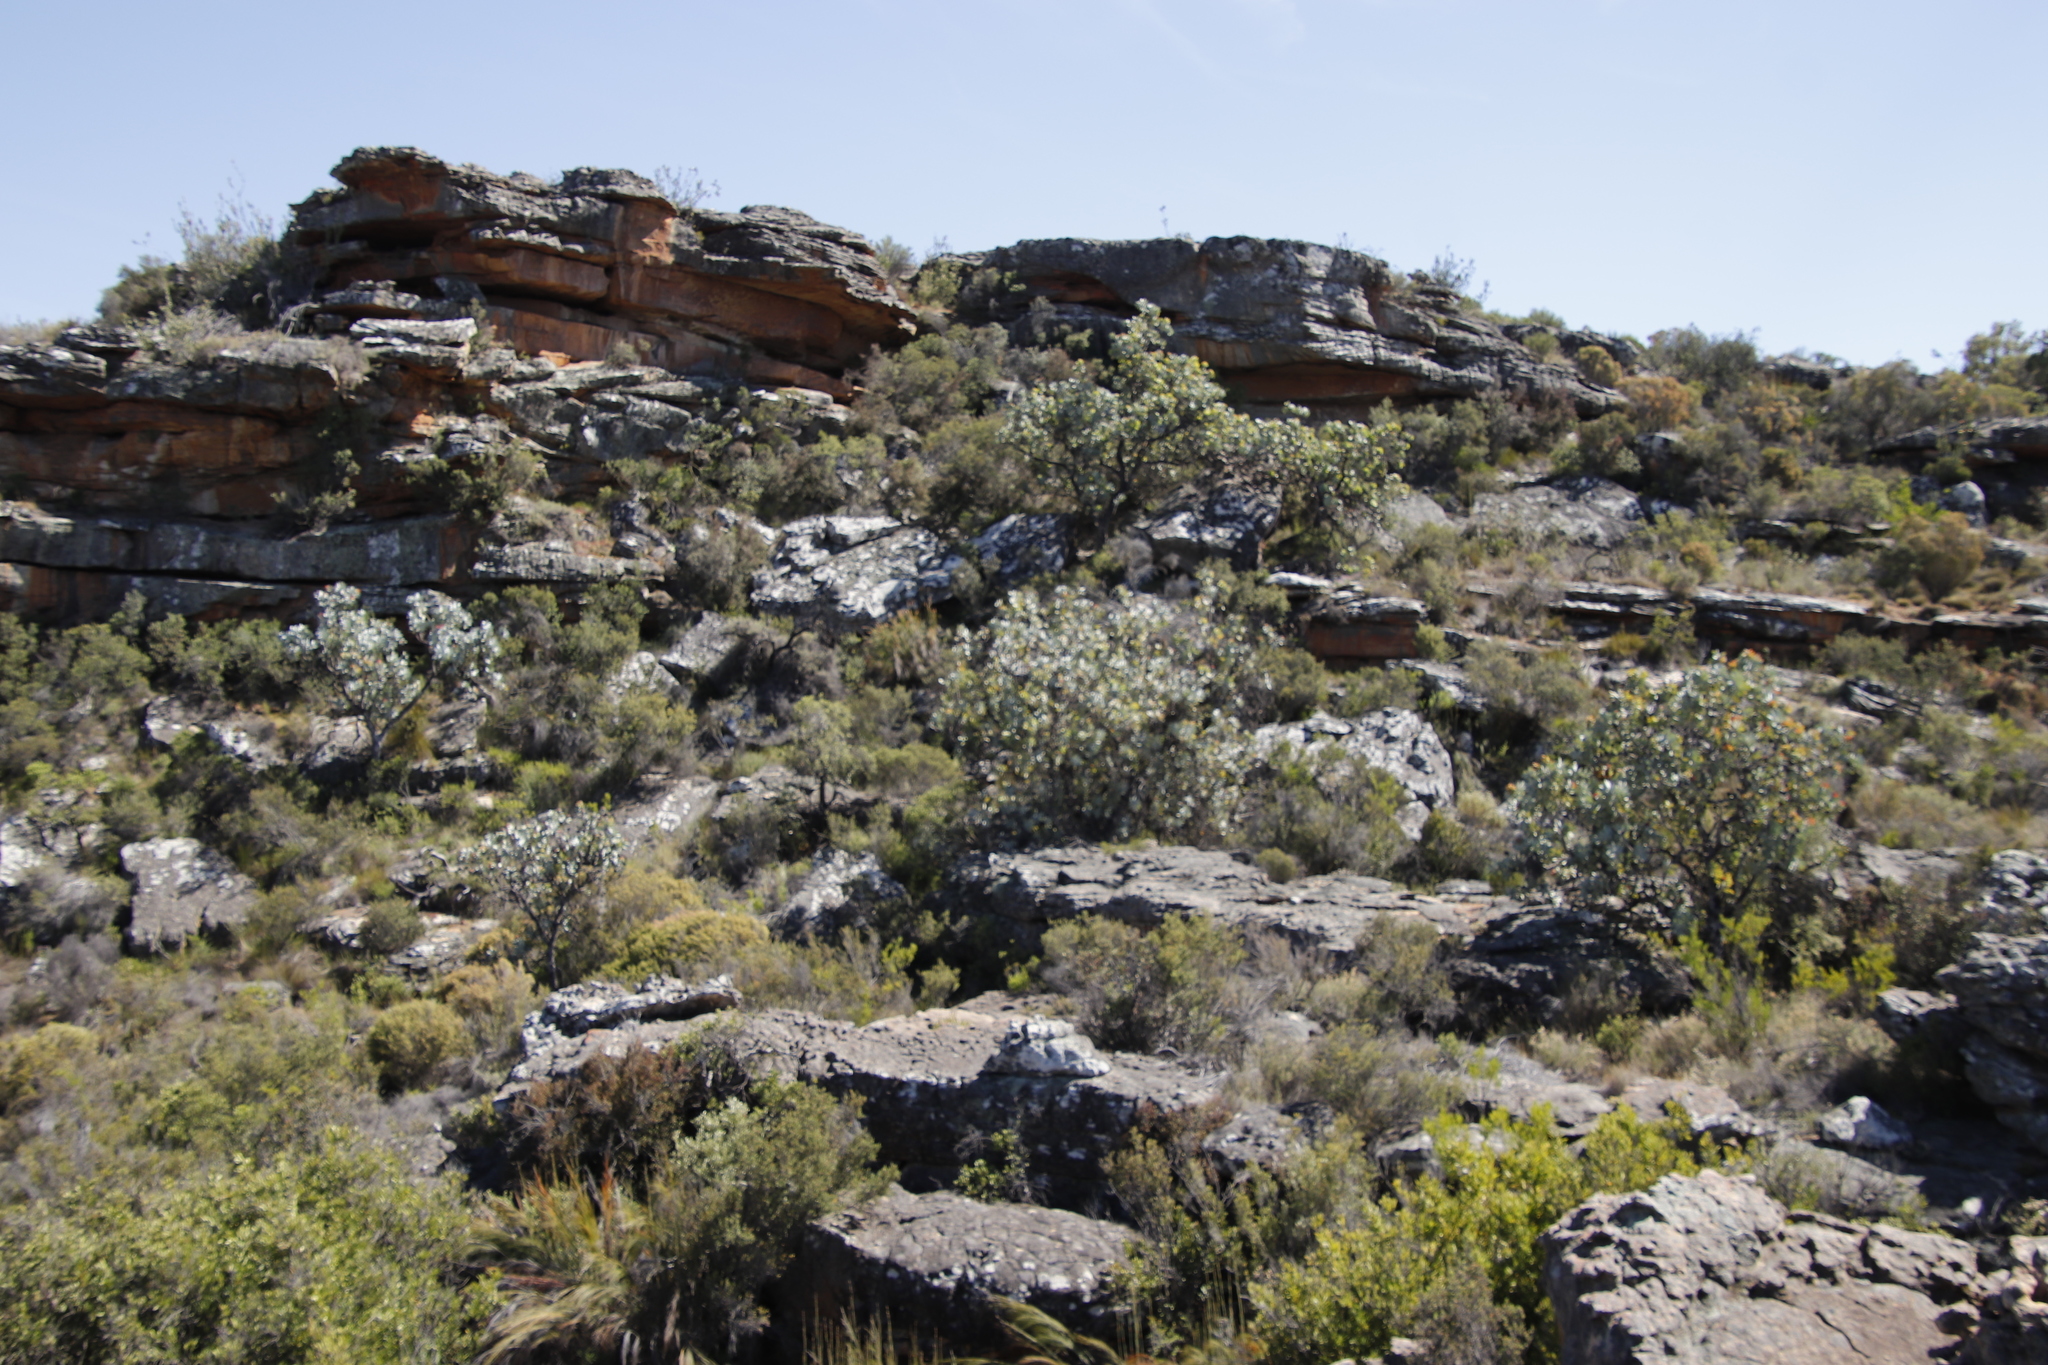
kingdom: Plantae
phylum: Tracheophyta
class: Magnoliopsida
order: Proteales
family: Proteaceae
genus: Protea
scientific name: Protea nitida
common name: Tree protea
